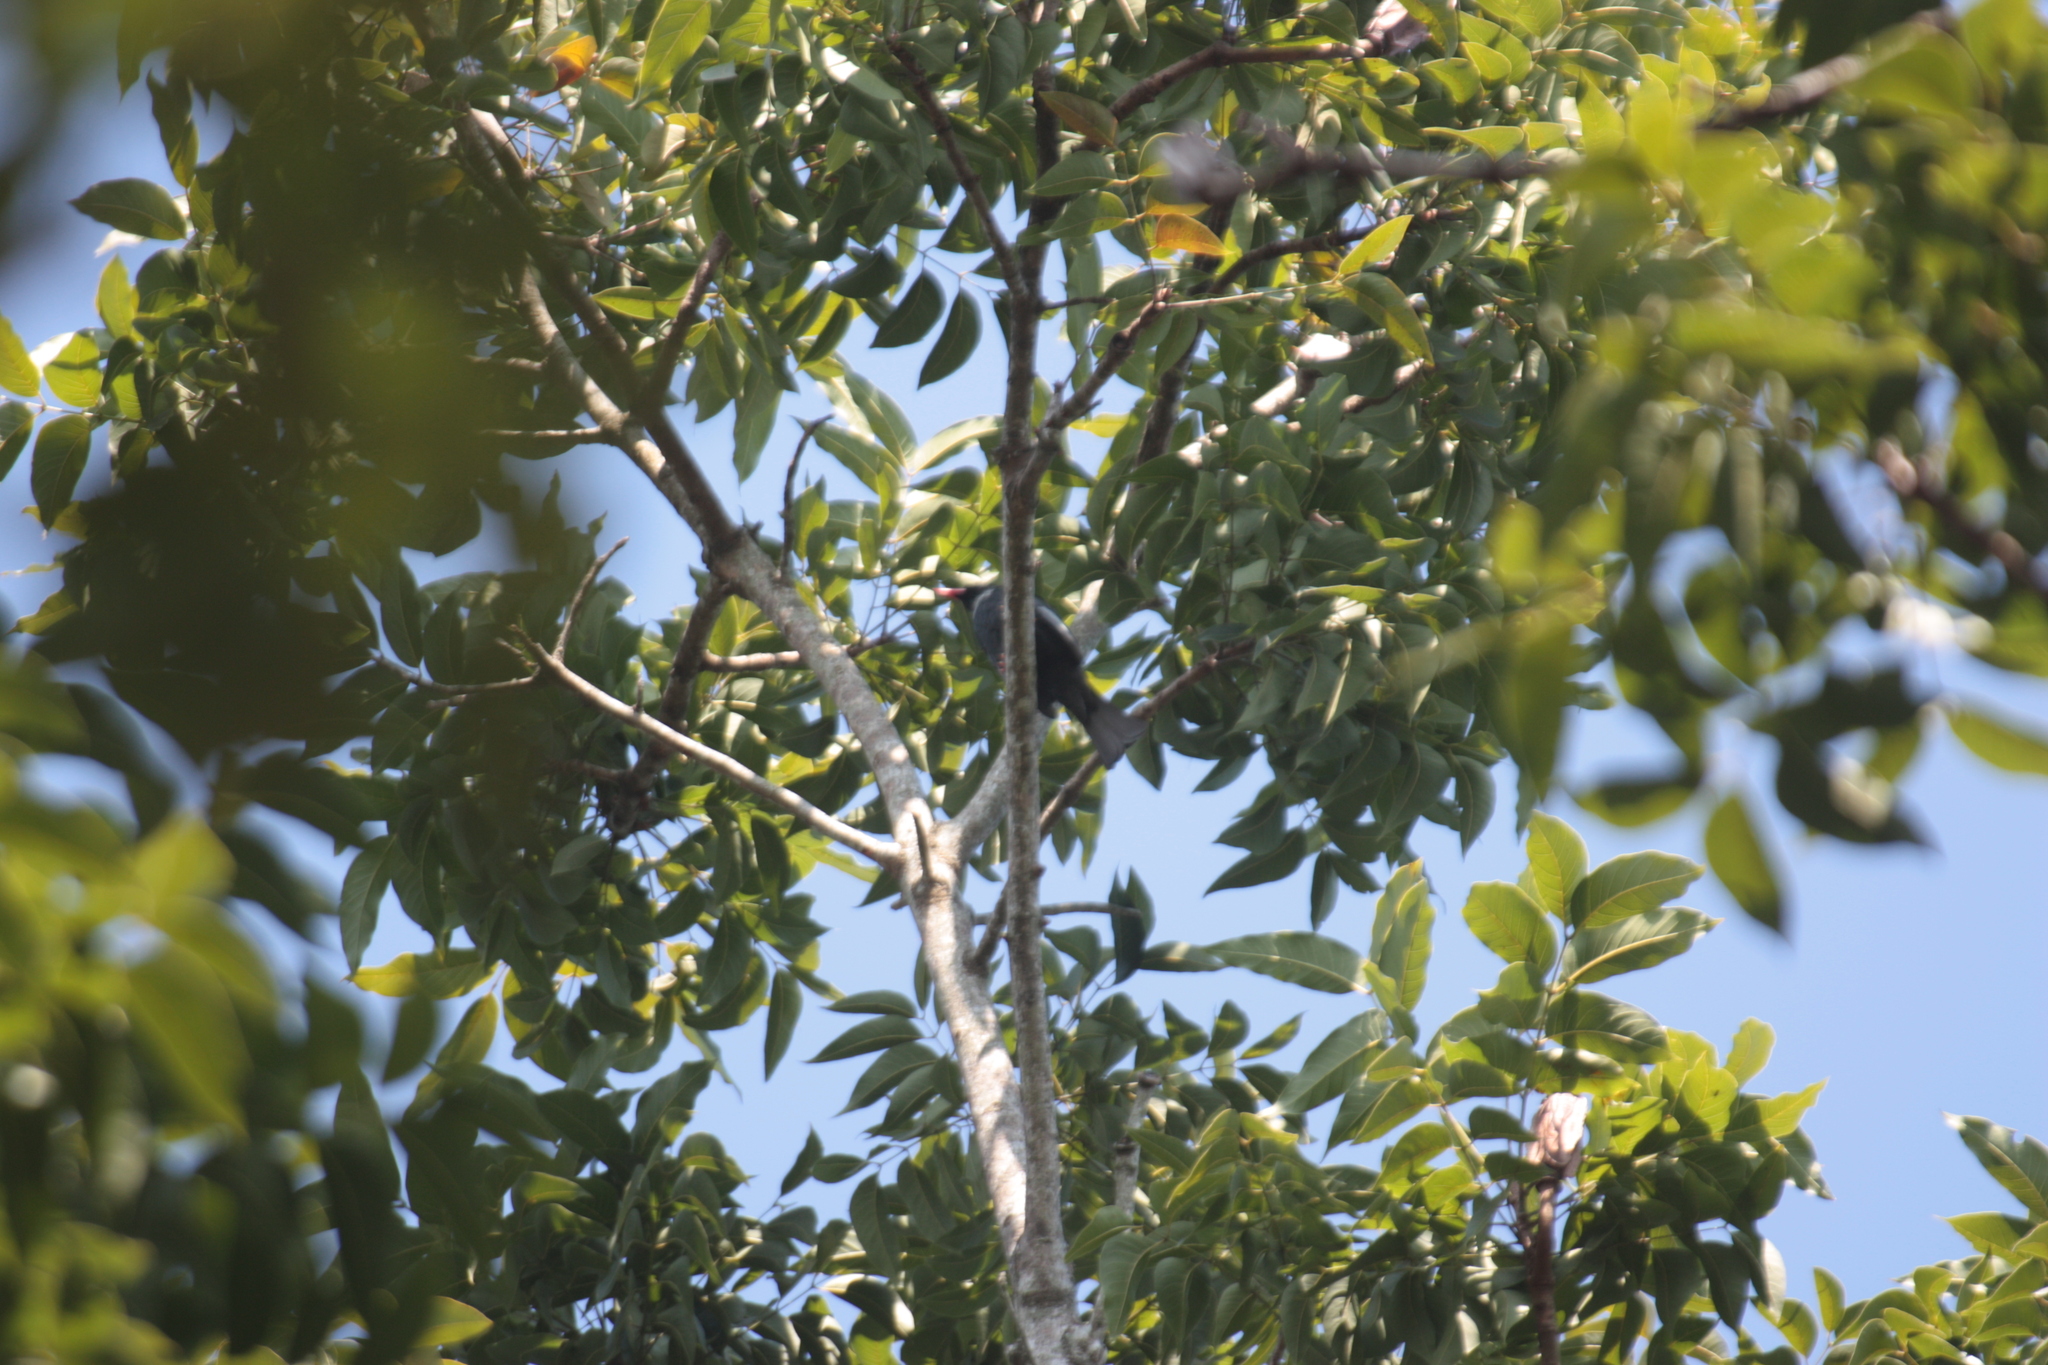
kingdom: Animalia
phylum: Chordata
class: Aves
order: Passeriformes
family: Pycnonotidae
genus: Hypsipetes
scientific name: Hypsipetes leucocephalus
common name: Black bulbul
